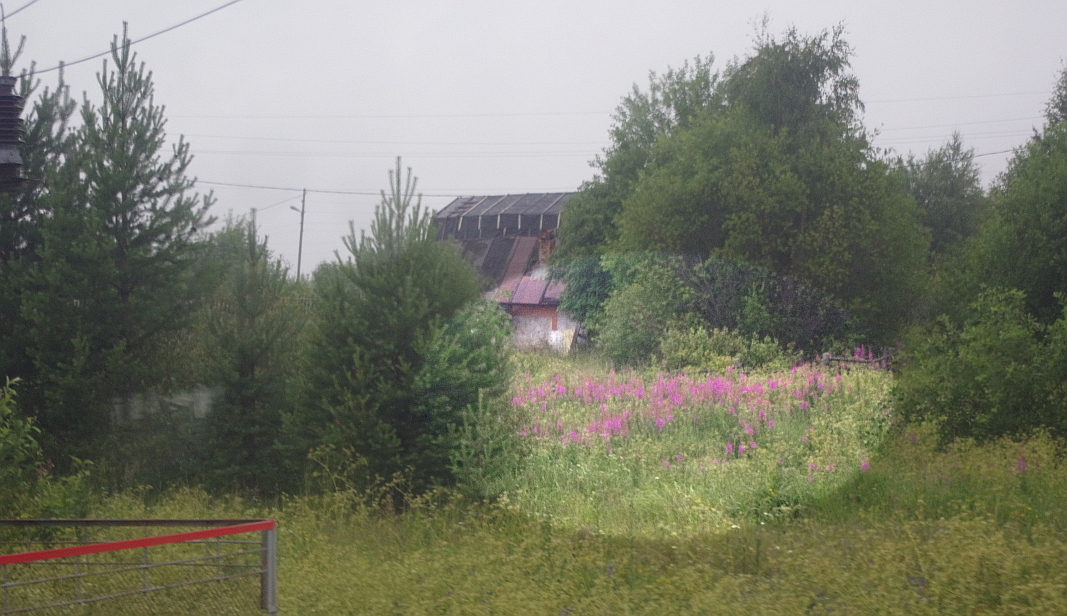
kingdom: Plantae
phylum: Tracheophyta
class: Magnoliopsida
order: Myrtales
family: Onagraceae
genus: Chamaenerion
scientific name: Chamaenerion angustifolium
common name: Fireweed
